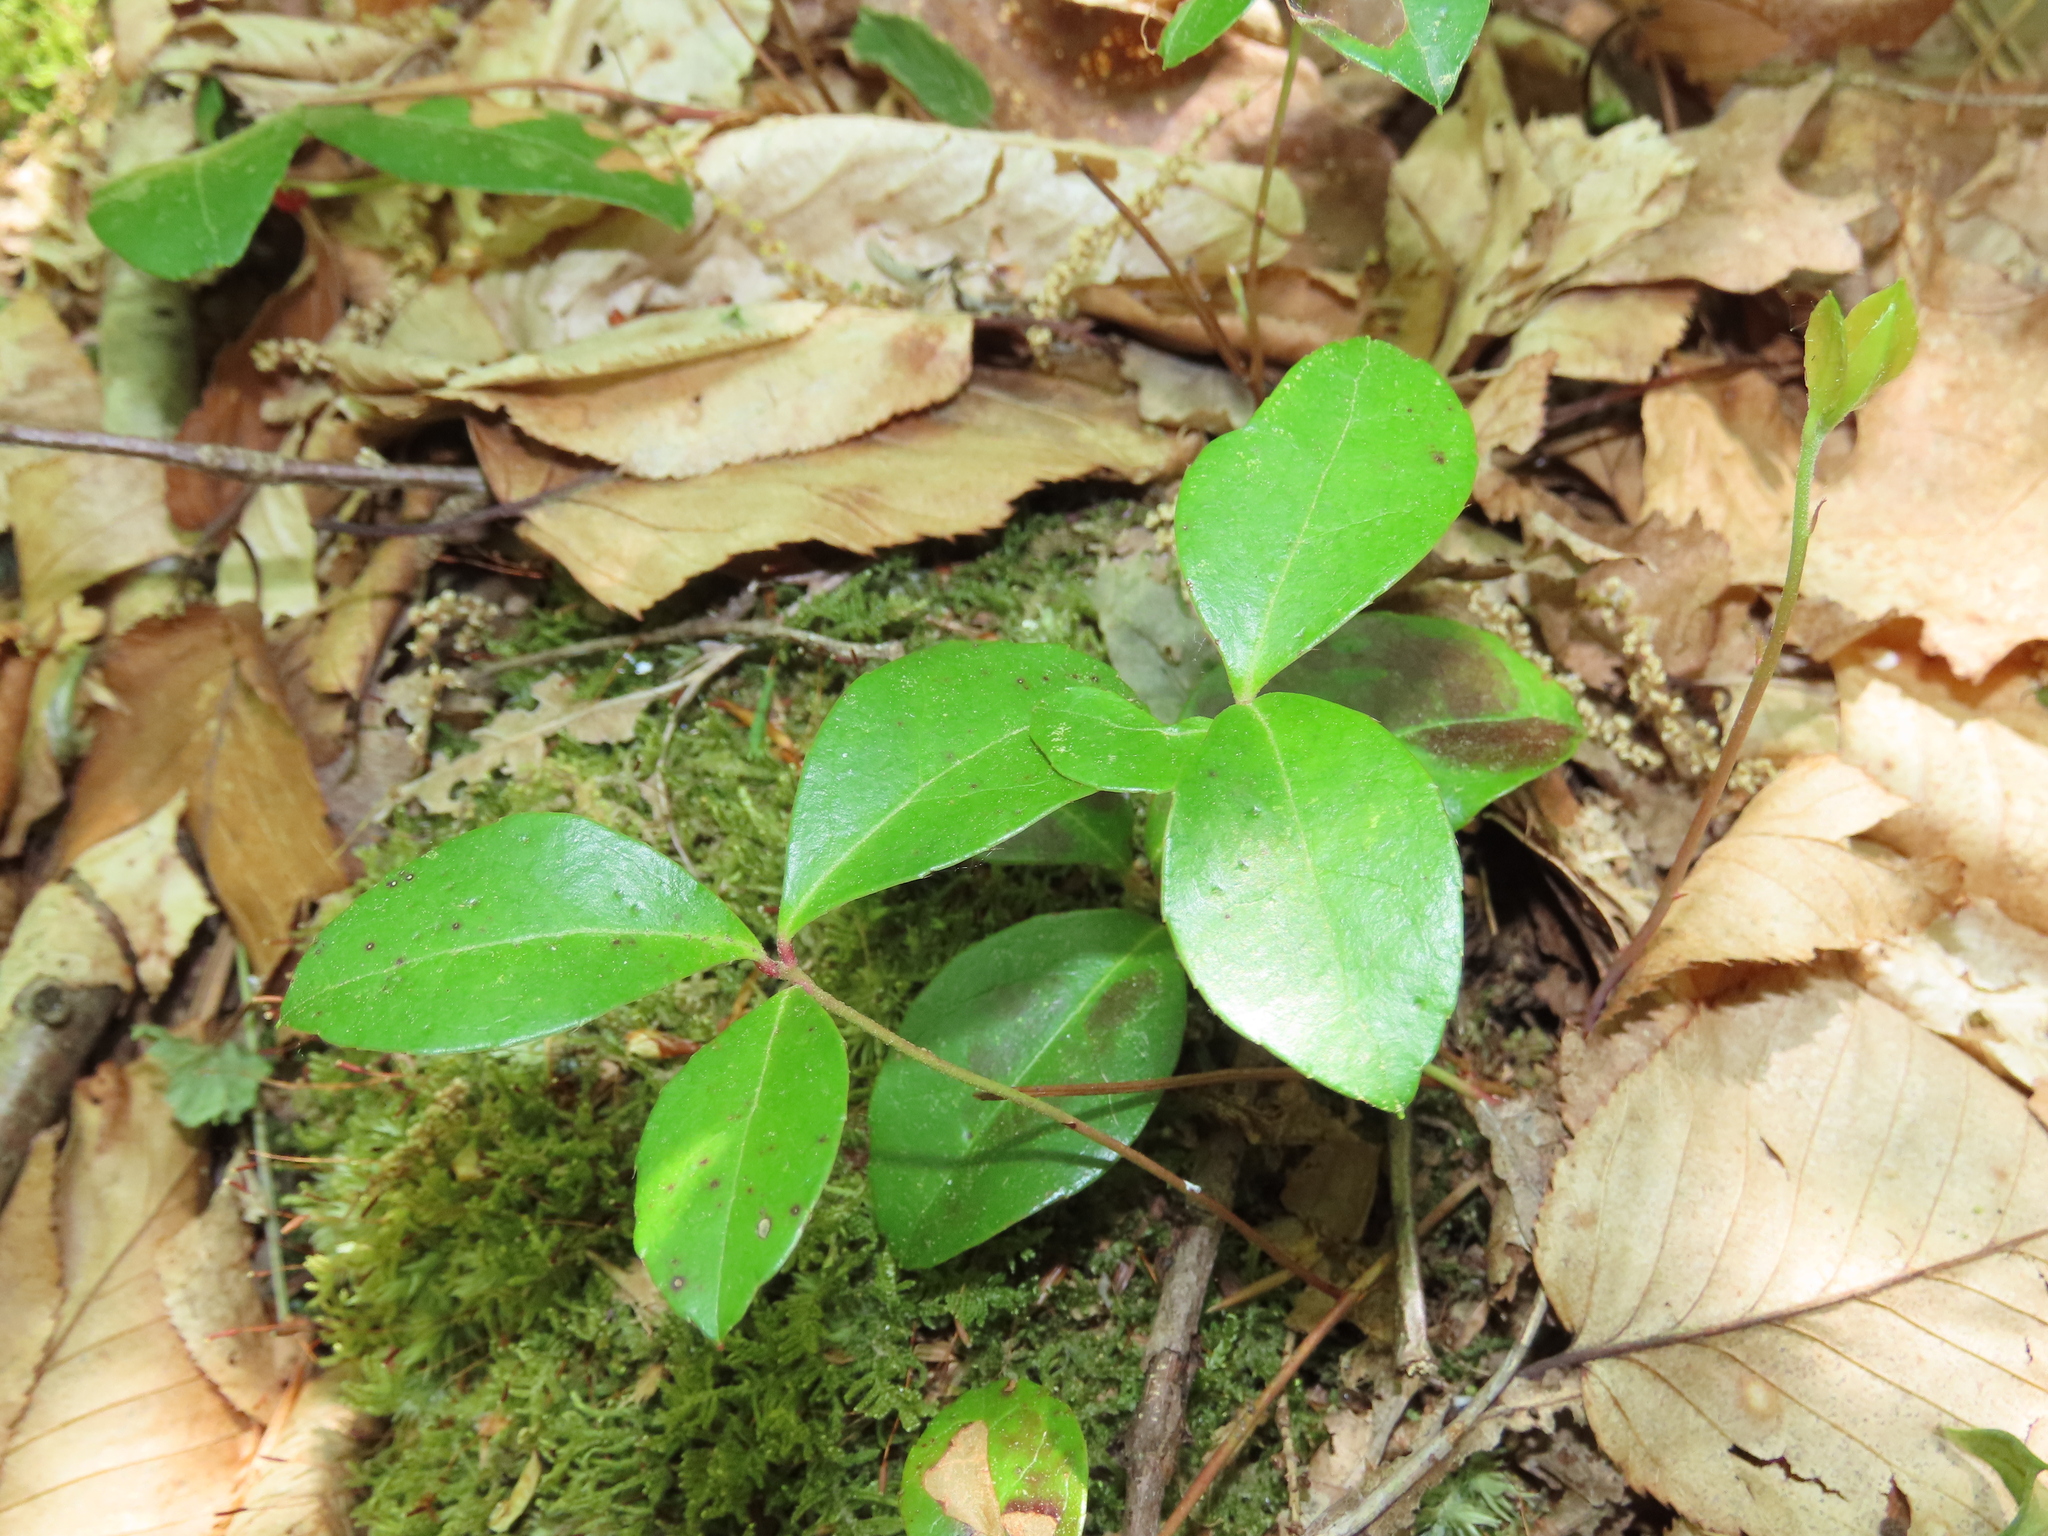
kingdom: Plantae
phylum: Tracheophyta
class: Magnoliopsida
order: Ericales
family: Ericaceae
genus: Gaultheria
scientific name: Gaultheria procumbens
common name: Checkerberry
